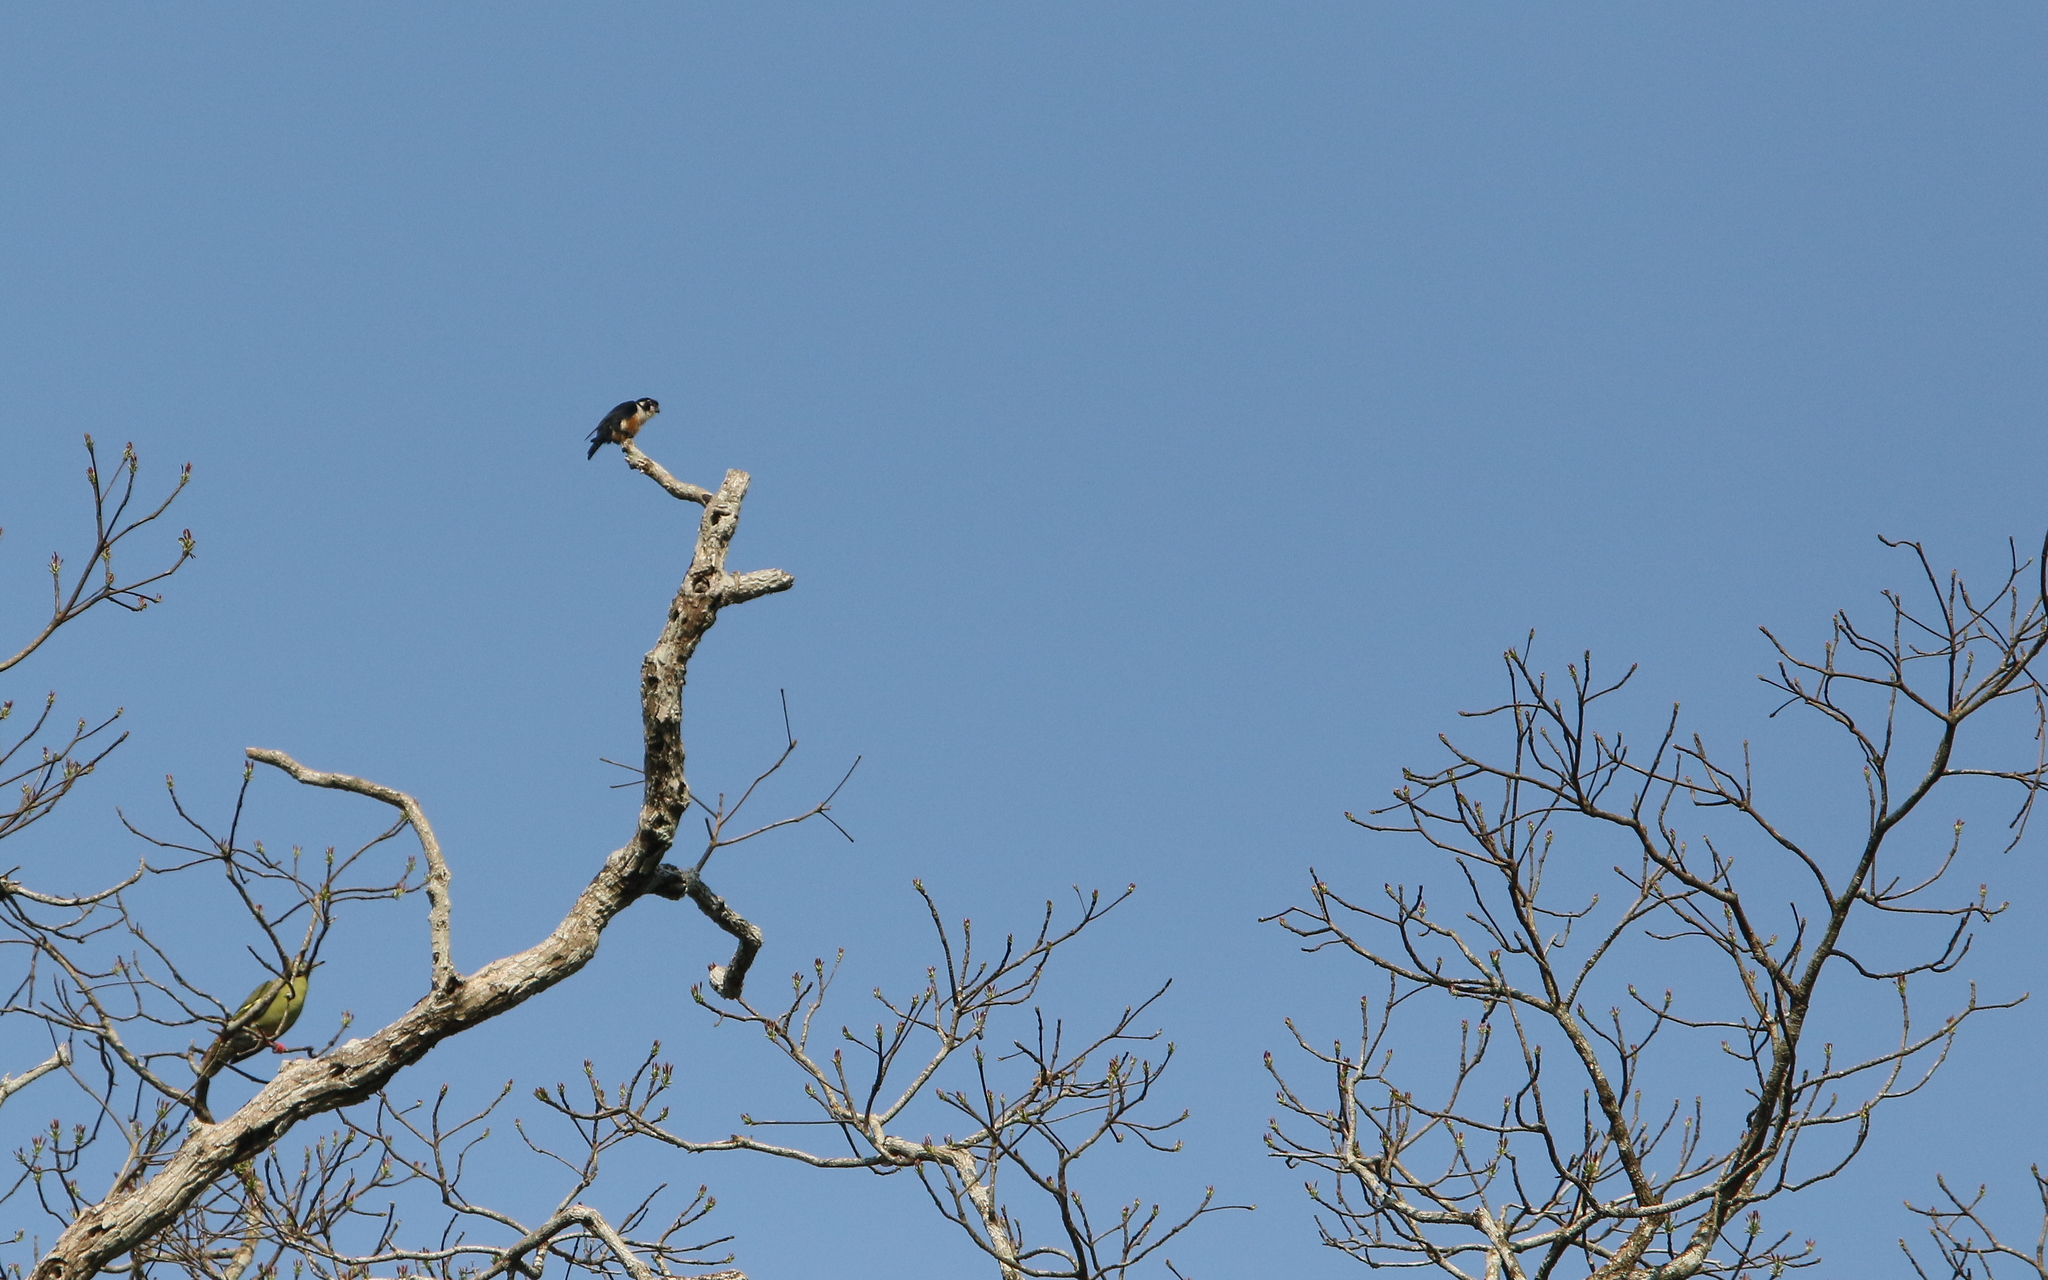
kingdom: Animalia
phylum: Chordata
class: Aves
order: Falconiformes
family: Falconidae
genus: Microhierax
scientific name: Microhierax fringillarius
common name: Black-thighed falconet
